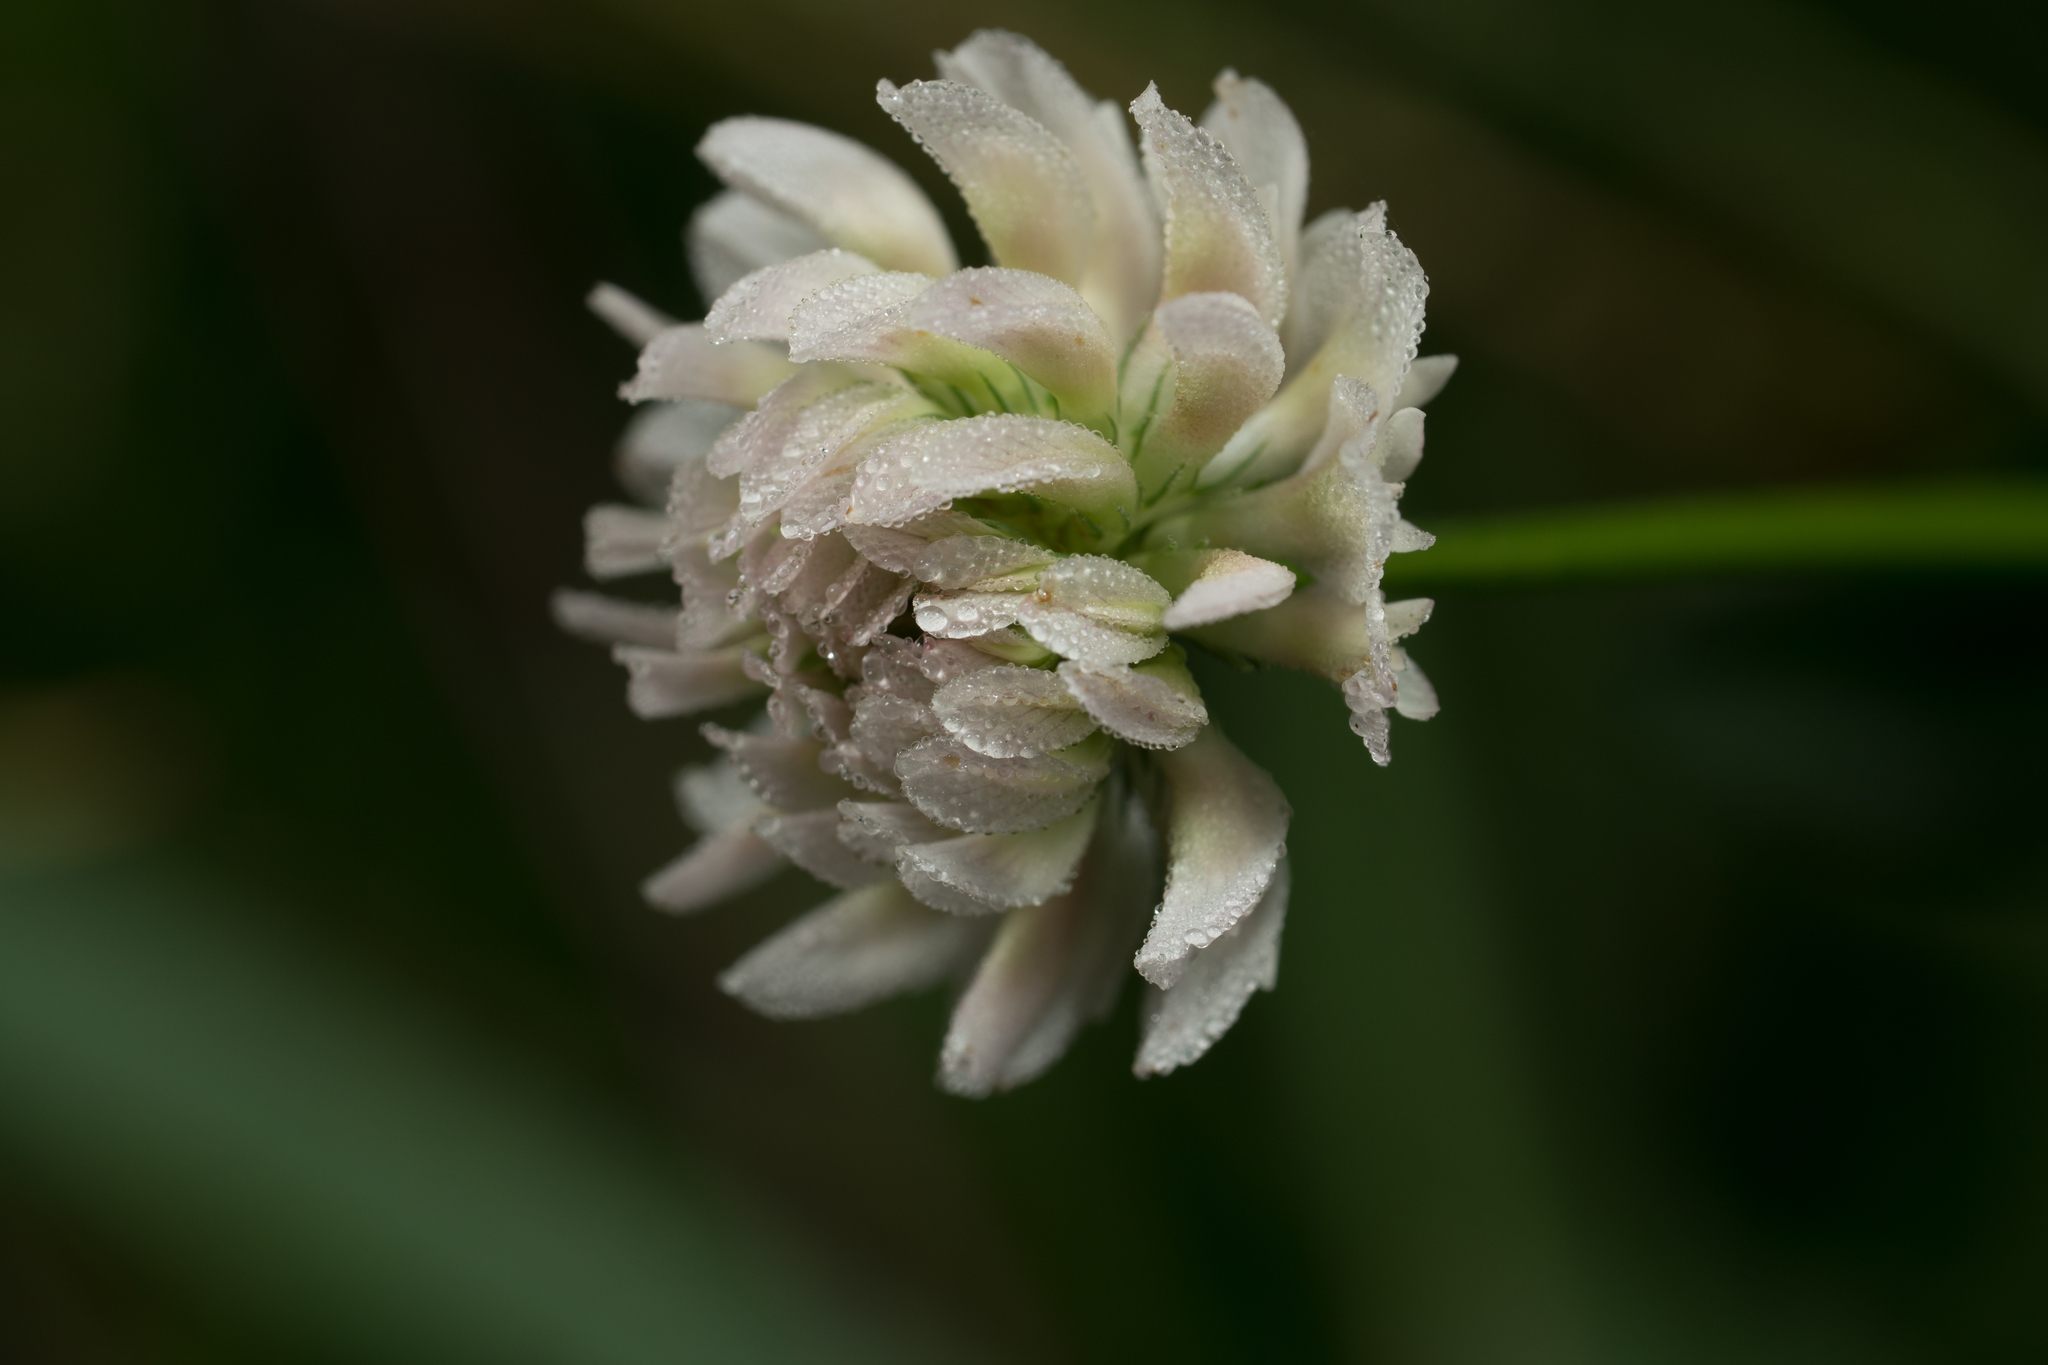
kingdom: Plantae
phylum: Tracheophyta
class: Magnoliopsida
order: Fabales
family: Fabaceae
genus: Trifolium
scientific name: Trifolium repens
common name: White clover
